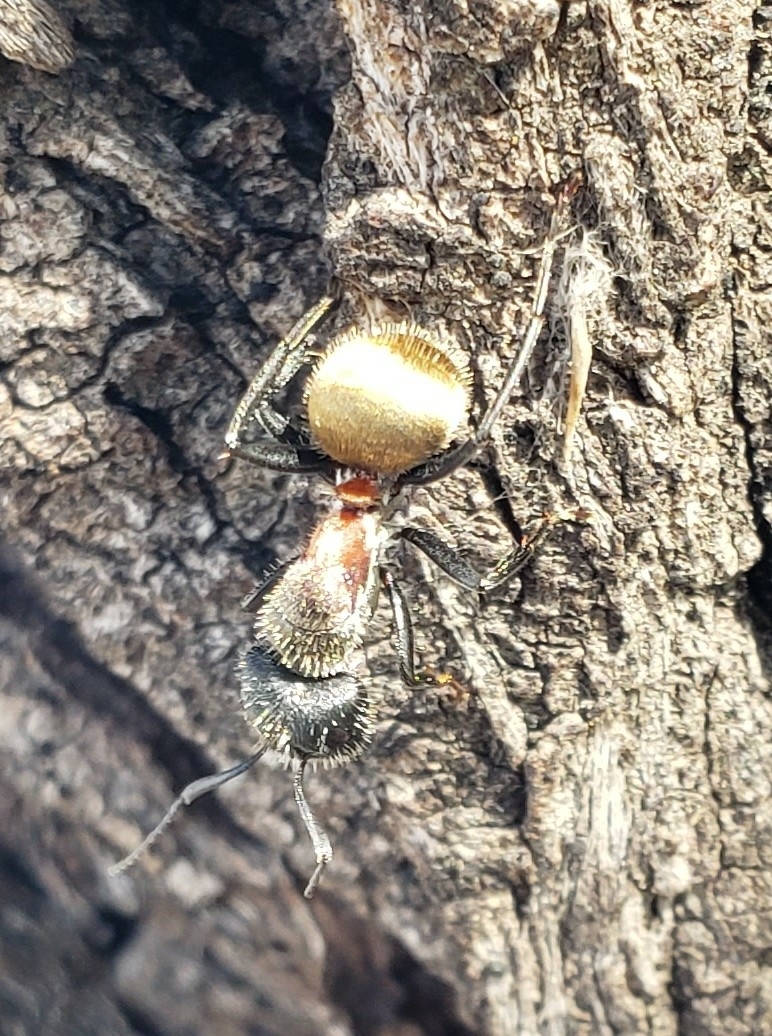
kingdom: Animalia
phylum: Arthropoda
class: Insecta
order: Hymenoptera
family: Formicidae
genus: Camponotus
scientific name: Camponotus pellarius
